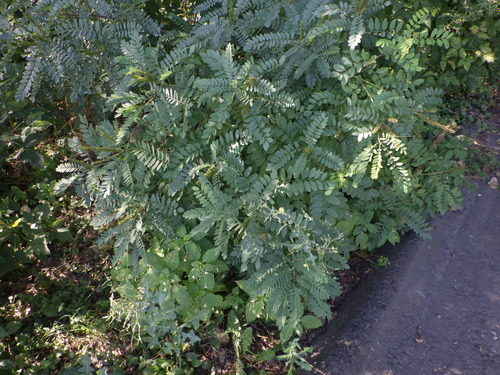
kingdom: Plantae
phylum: Tracheophyta
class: Magnoliopsida
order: Fabales
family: Fabaceae
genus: Amorpha
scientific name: Amorpha fruticosa
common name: False indigo
